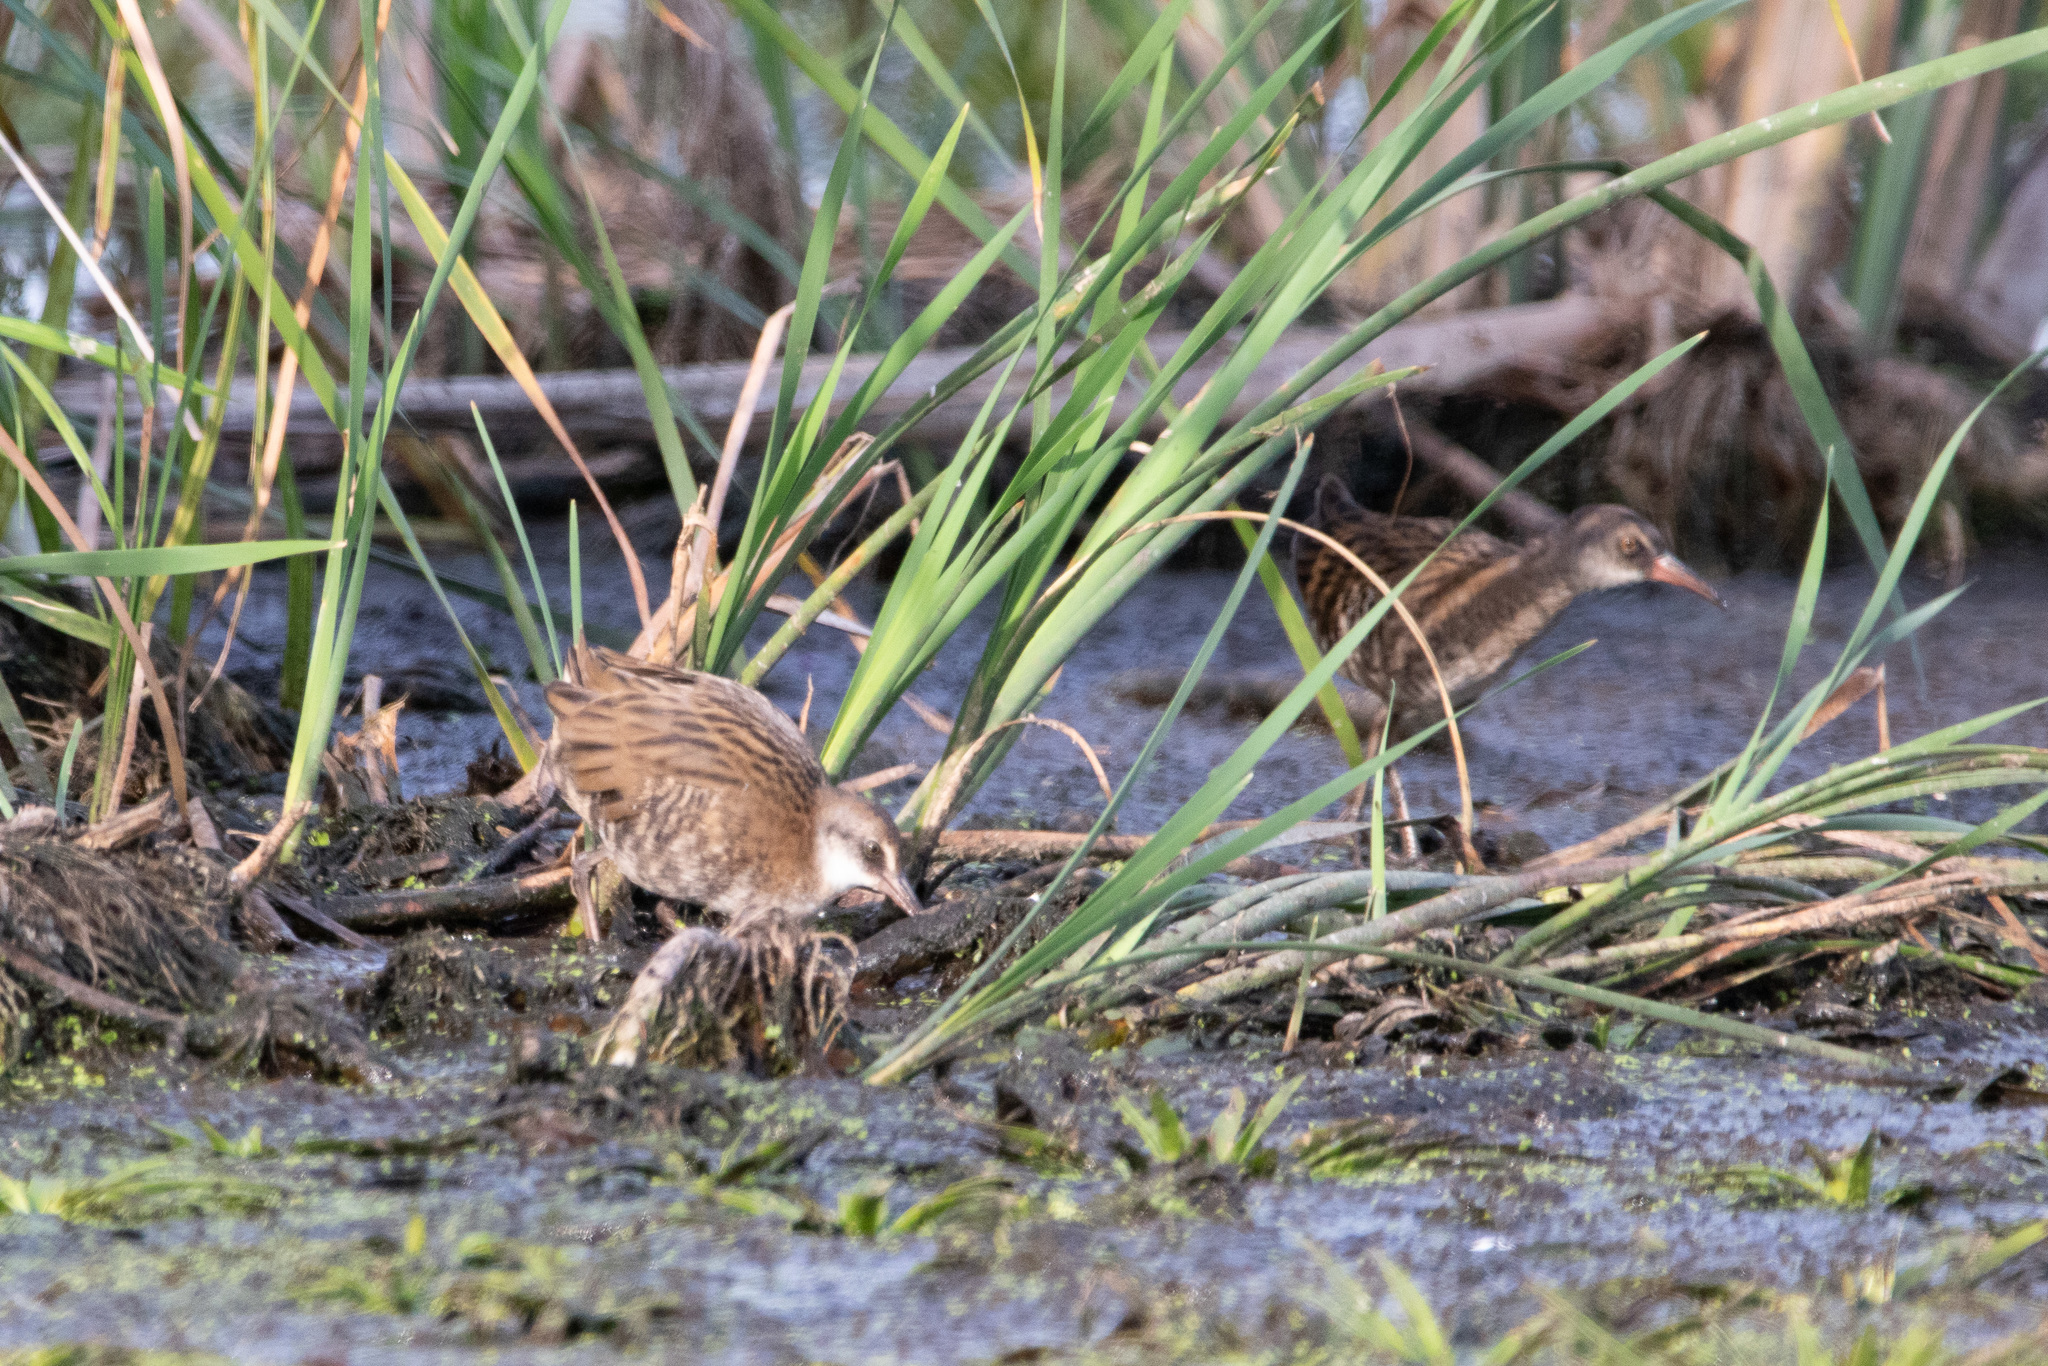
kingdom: Animalia
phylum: Chordata
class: Aves
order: Gruiformes
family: Rallidae
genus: Rallus
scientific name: Rallus aquaticus
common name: Water rail
